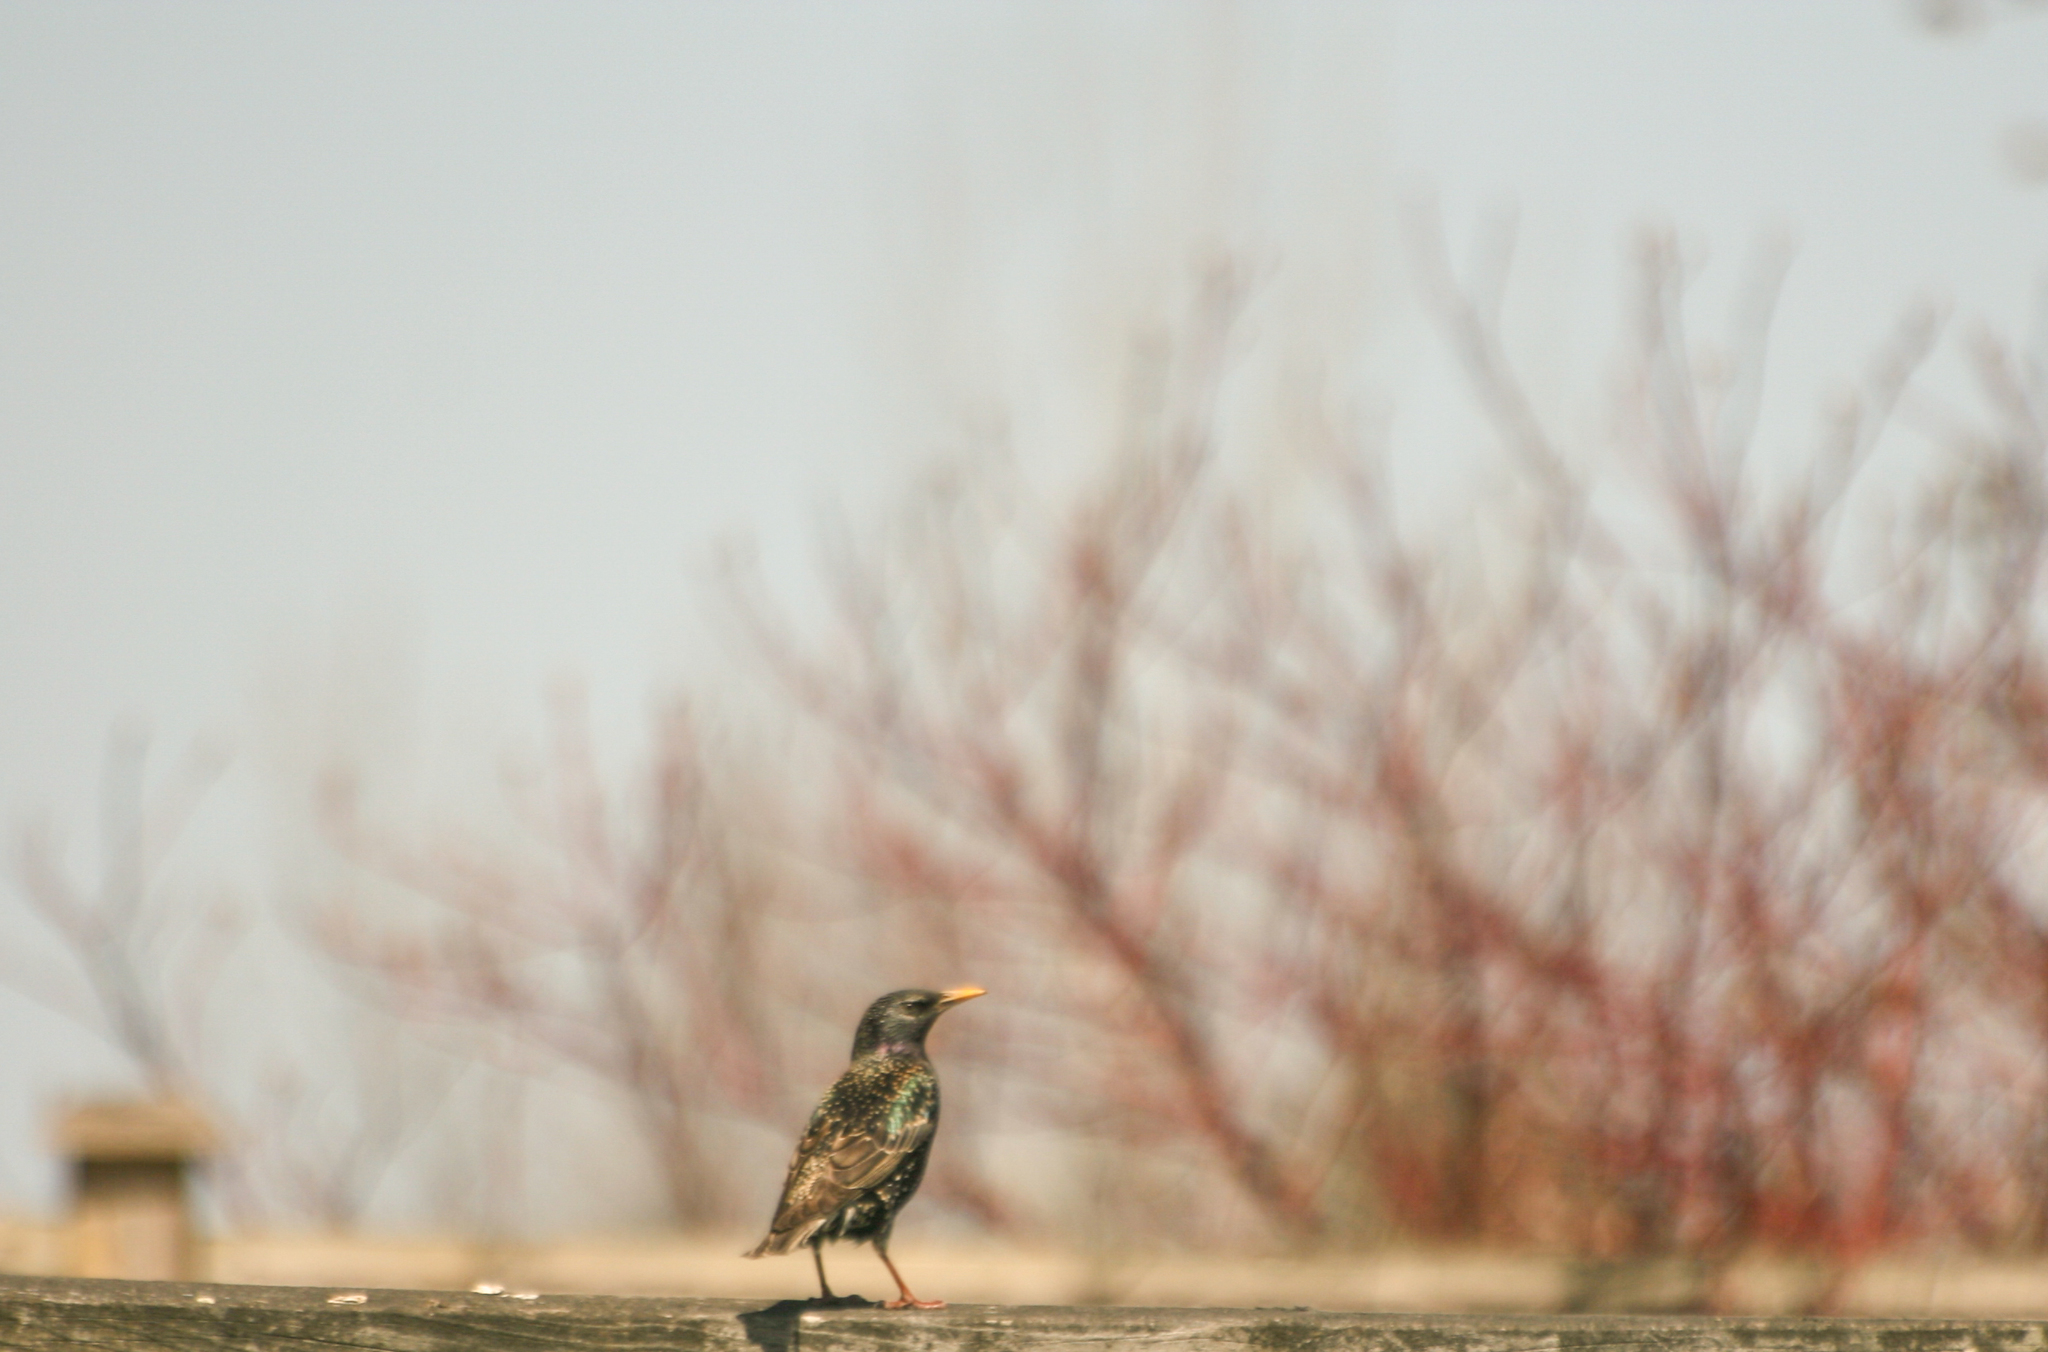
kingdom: Animalia
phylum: Chordata
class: Aves
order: Passeriformes
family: Sturnidae
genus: Sturnus
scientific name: Sturnus vulgaris
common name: Common starling
